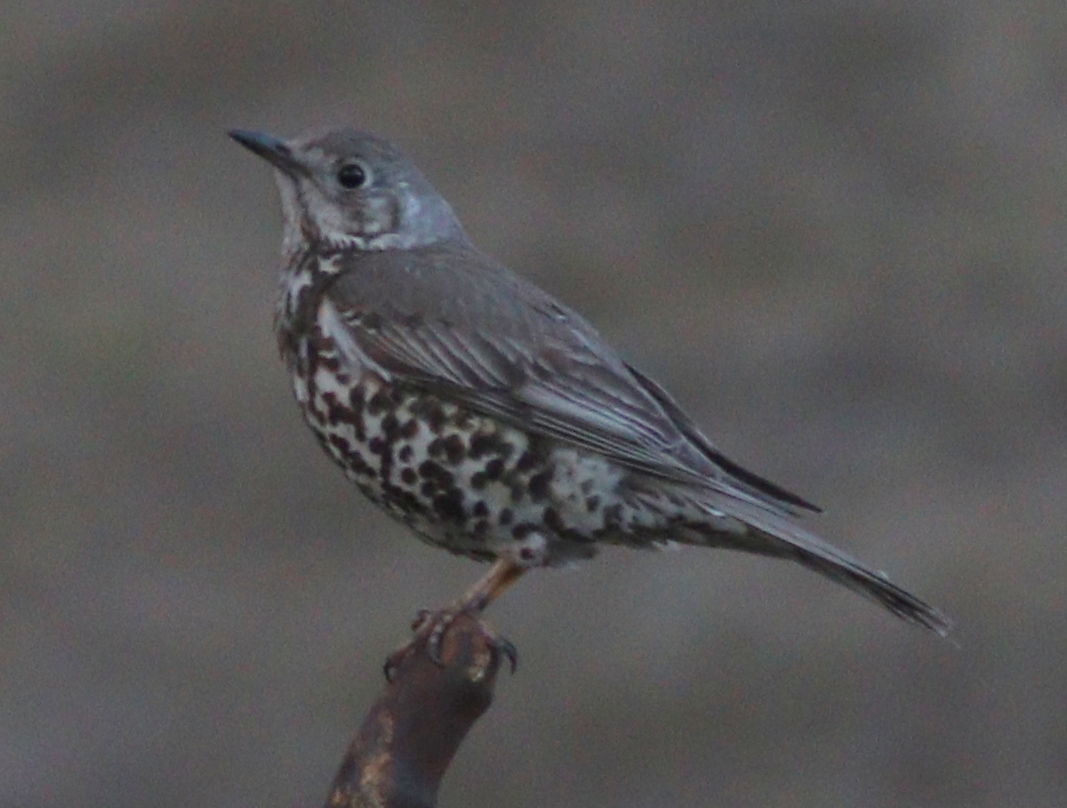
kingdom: Animalia
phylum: Chordata
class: Aves
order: Passeriformes
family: Turdidae
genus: Turdus
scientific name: Turdus viscivorus
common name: Mistle thrush
